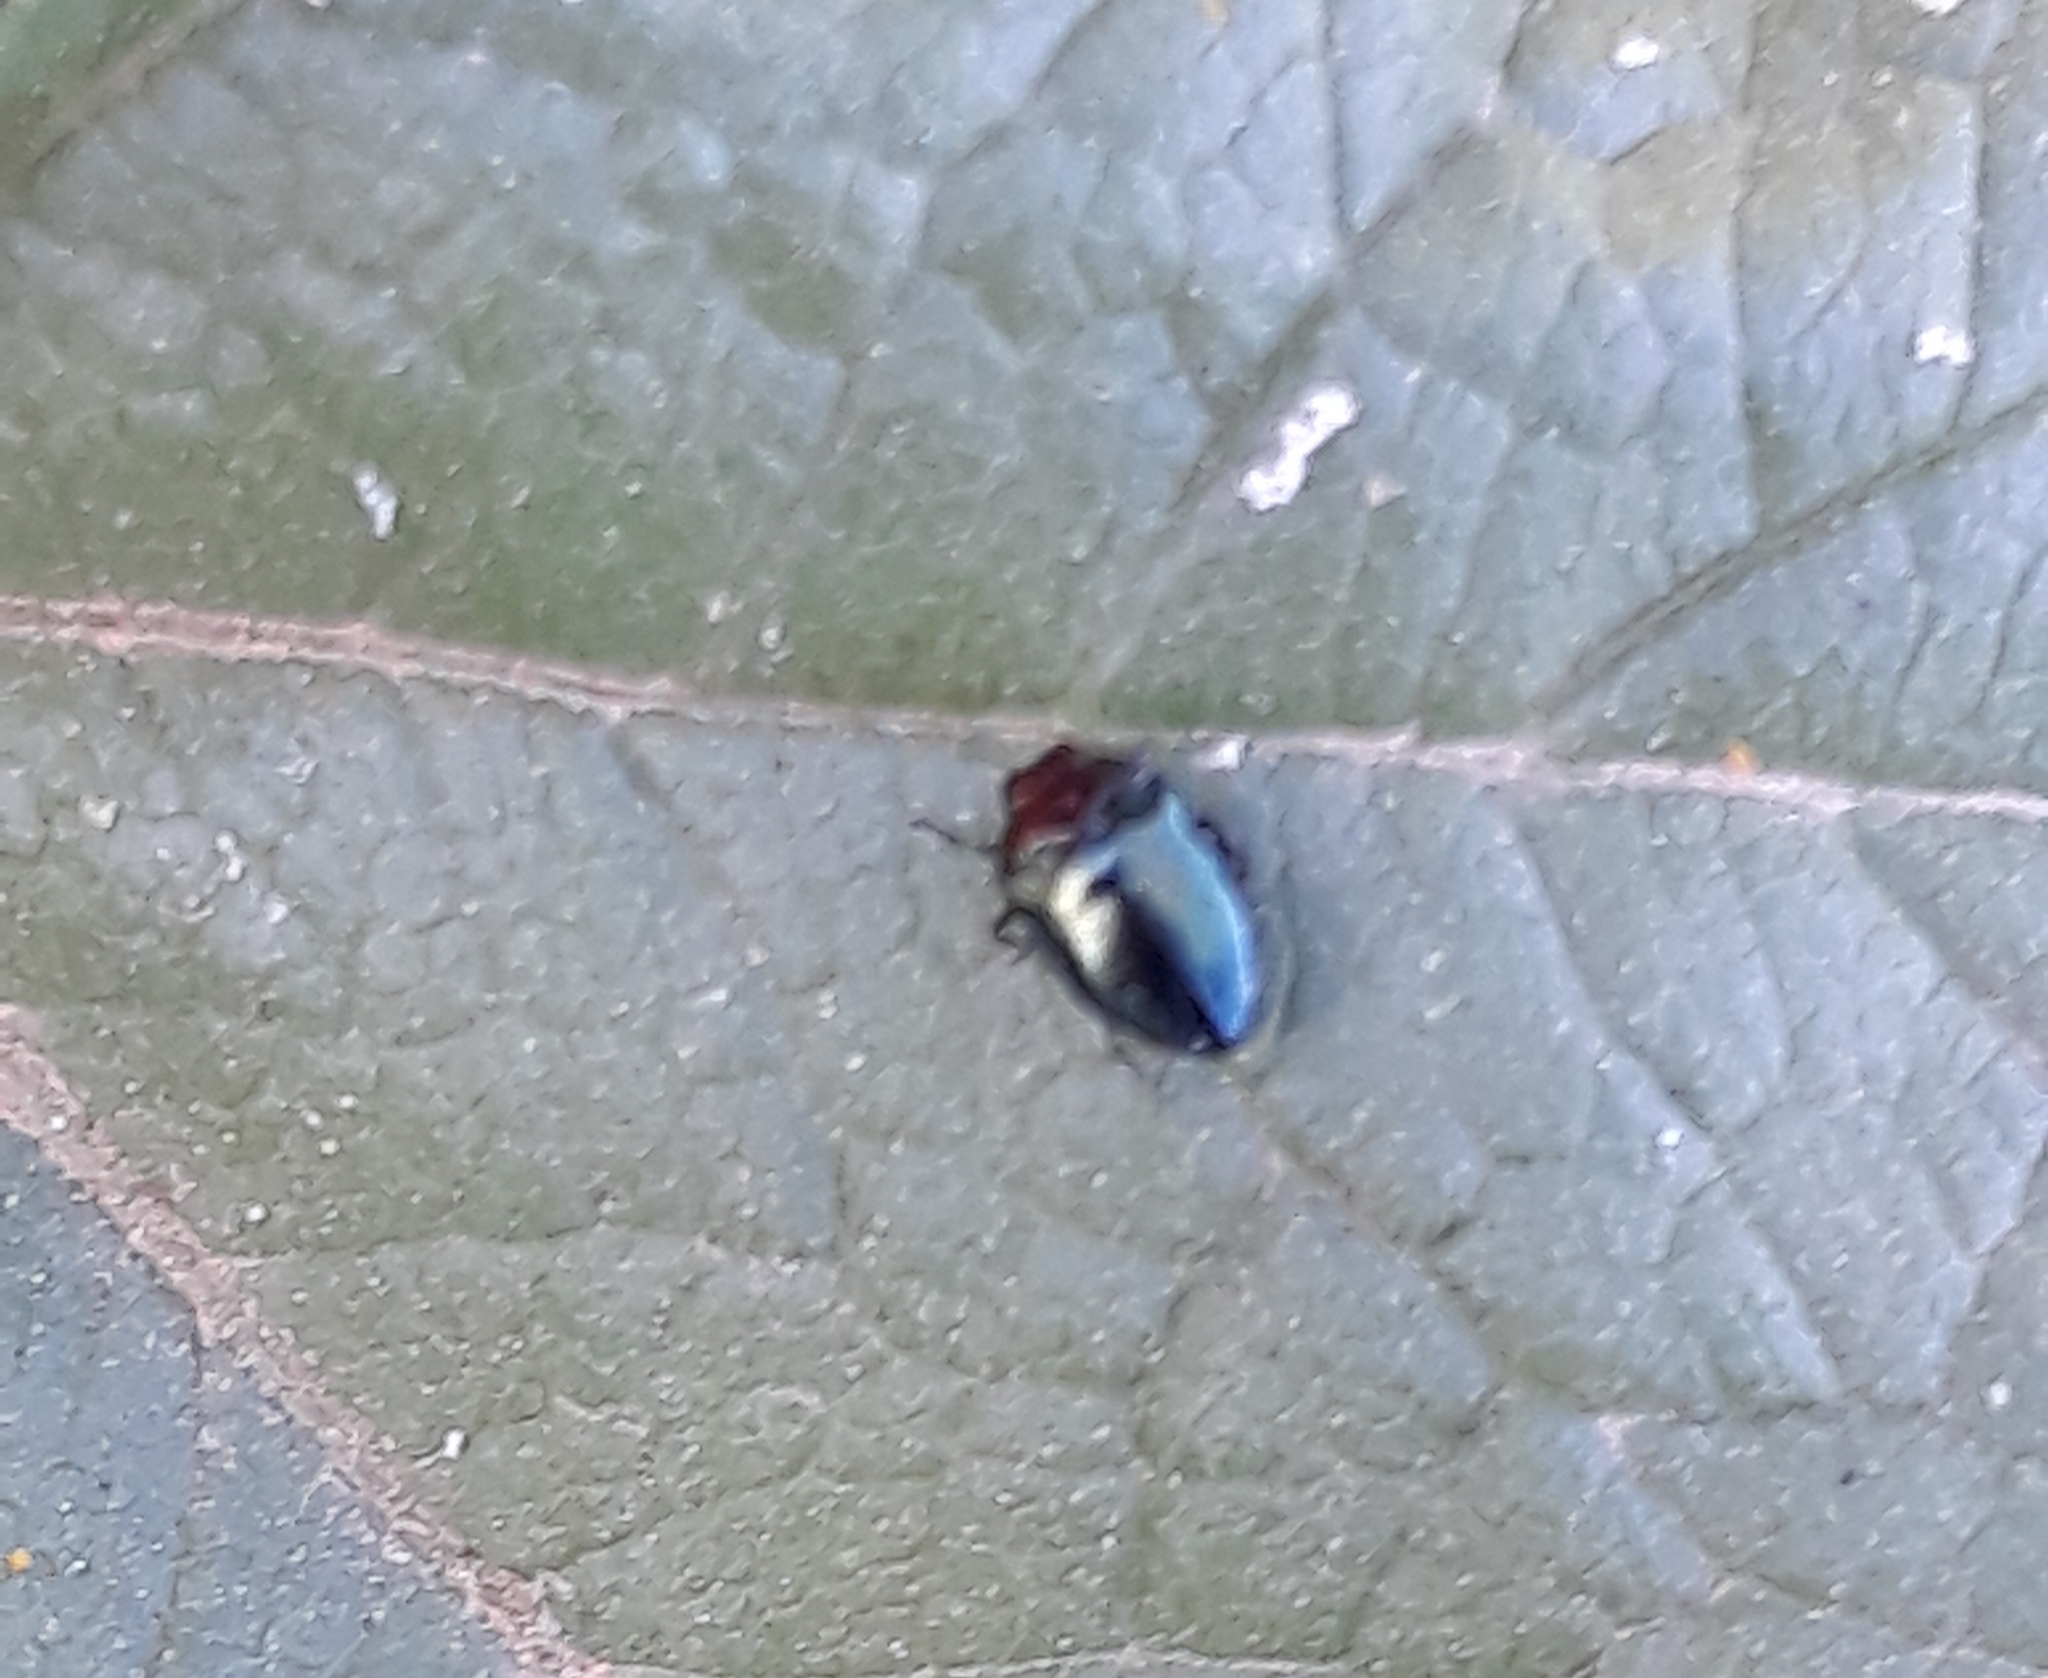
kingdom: Animalia
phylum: Arthropoda
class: Insecta
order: Coleoptera
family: Buprestidae
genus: Trachys
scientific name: Trachys troglodytiformis
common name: Metallic wood-boring beetle
